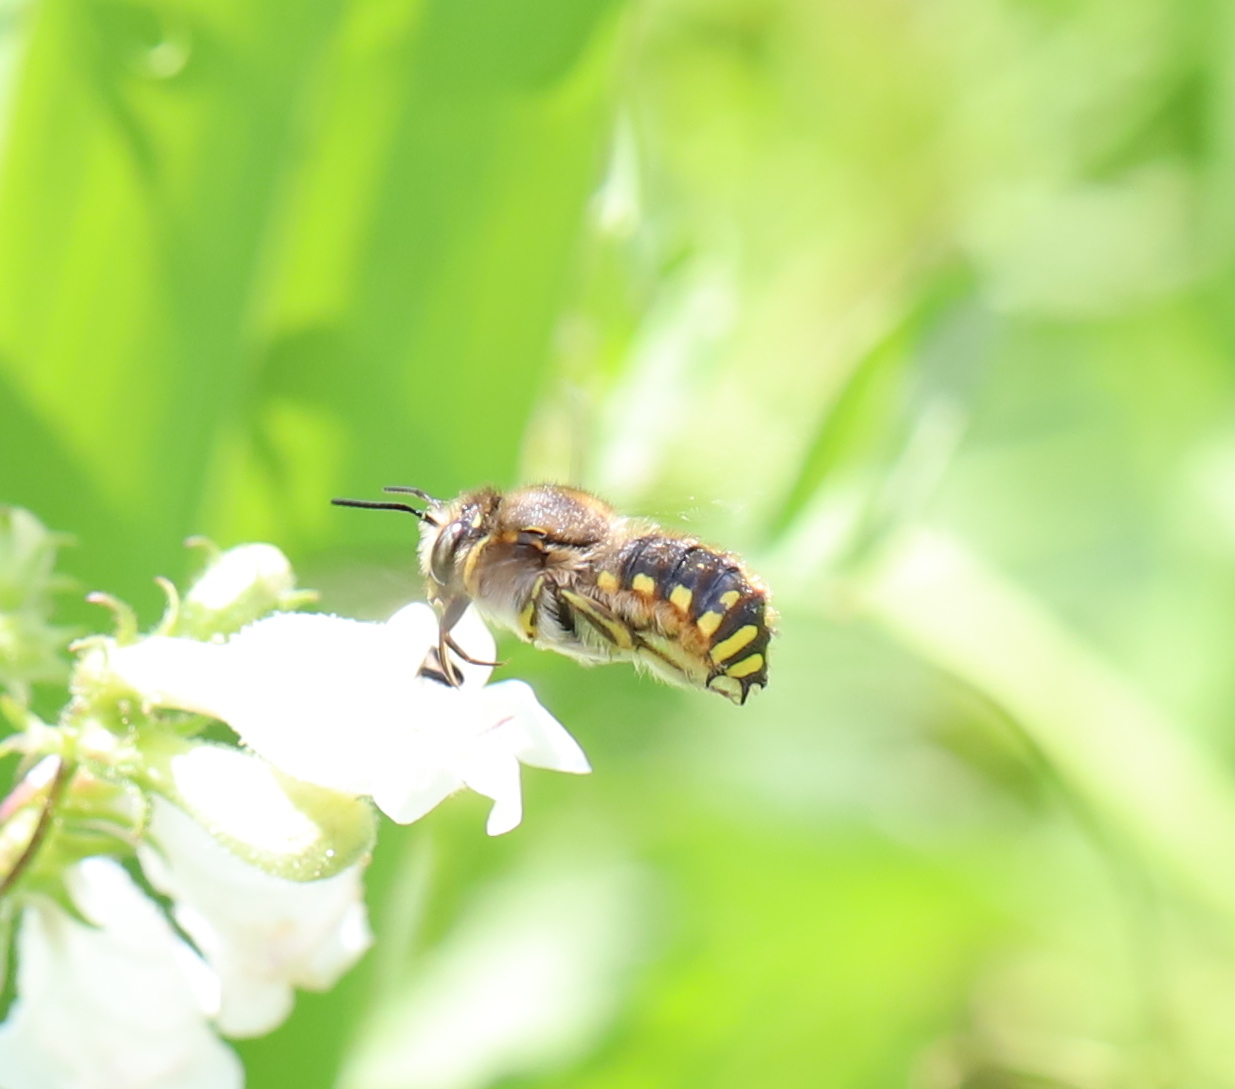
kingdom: Animalia
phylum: Arthropoda
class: Insecta
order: Hymenoptera
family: Megachilidae
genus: Anthidium
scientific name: Anthidium manicatum
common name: Wool carder bee
